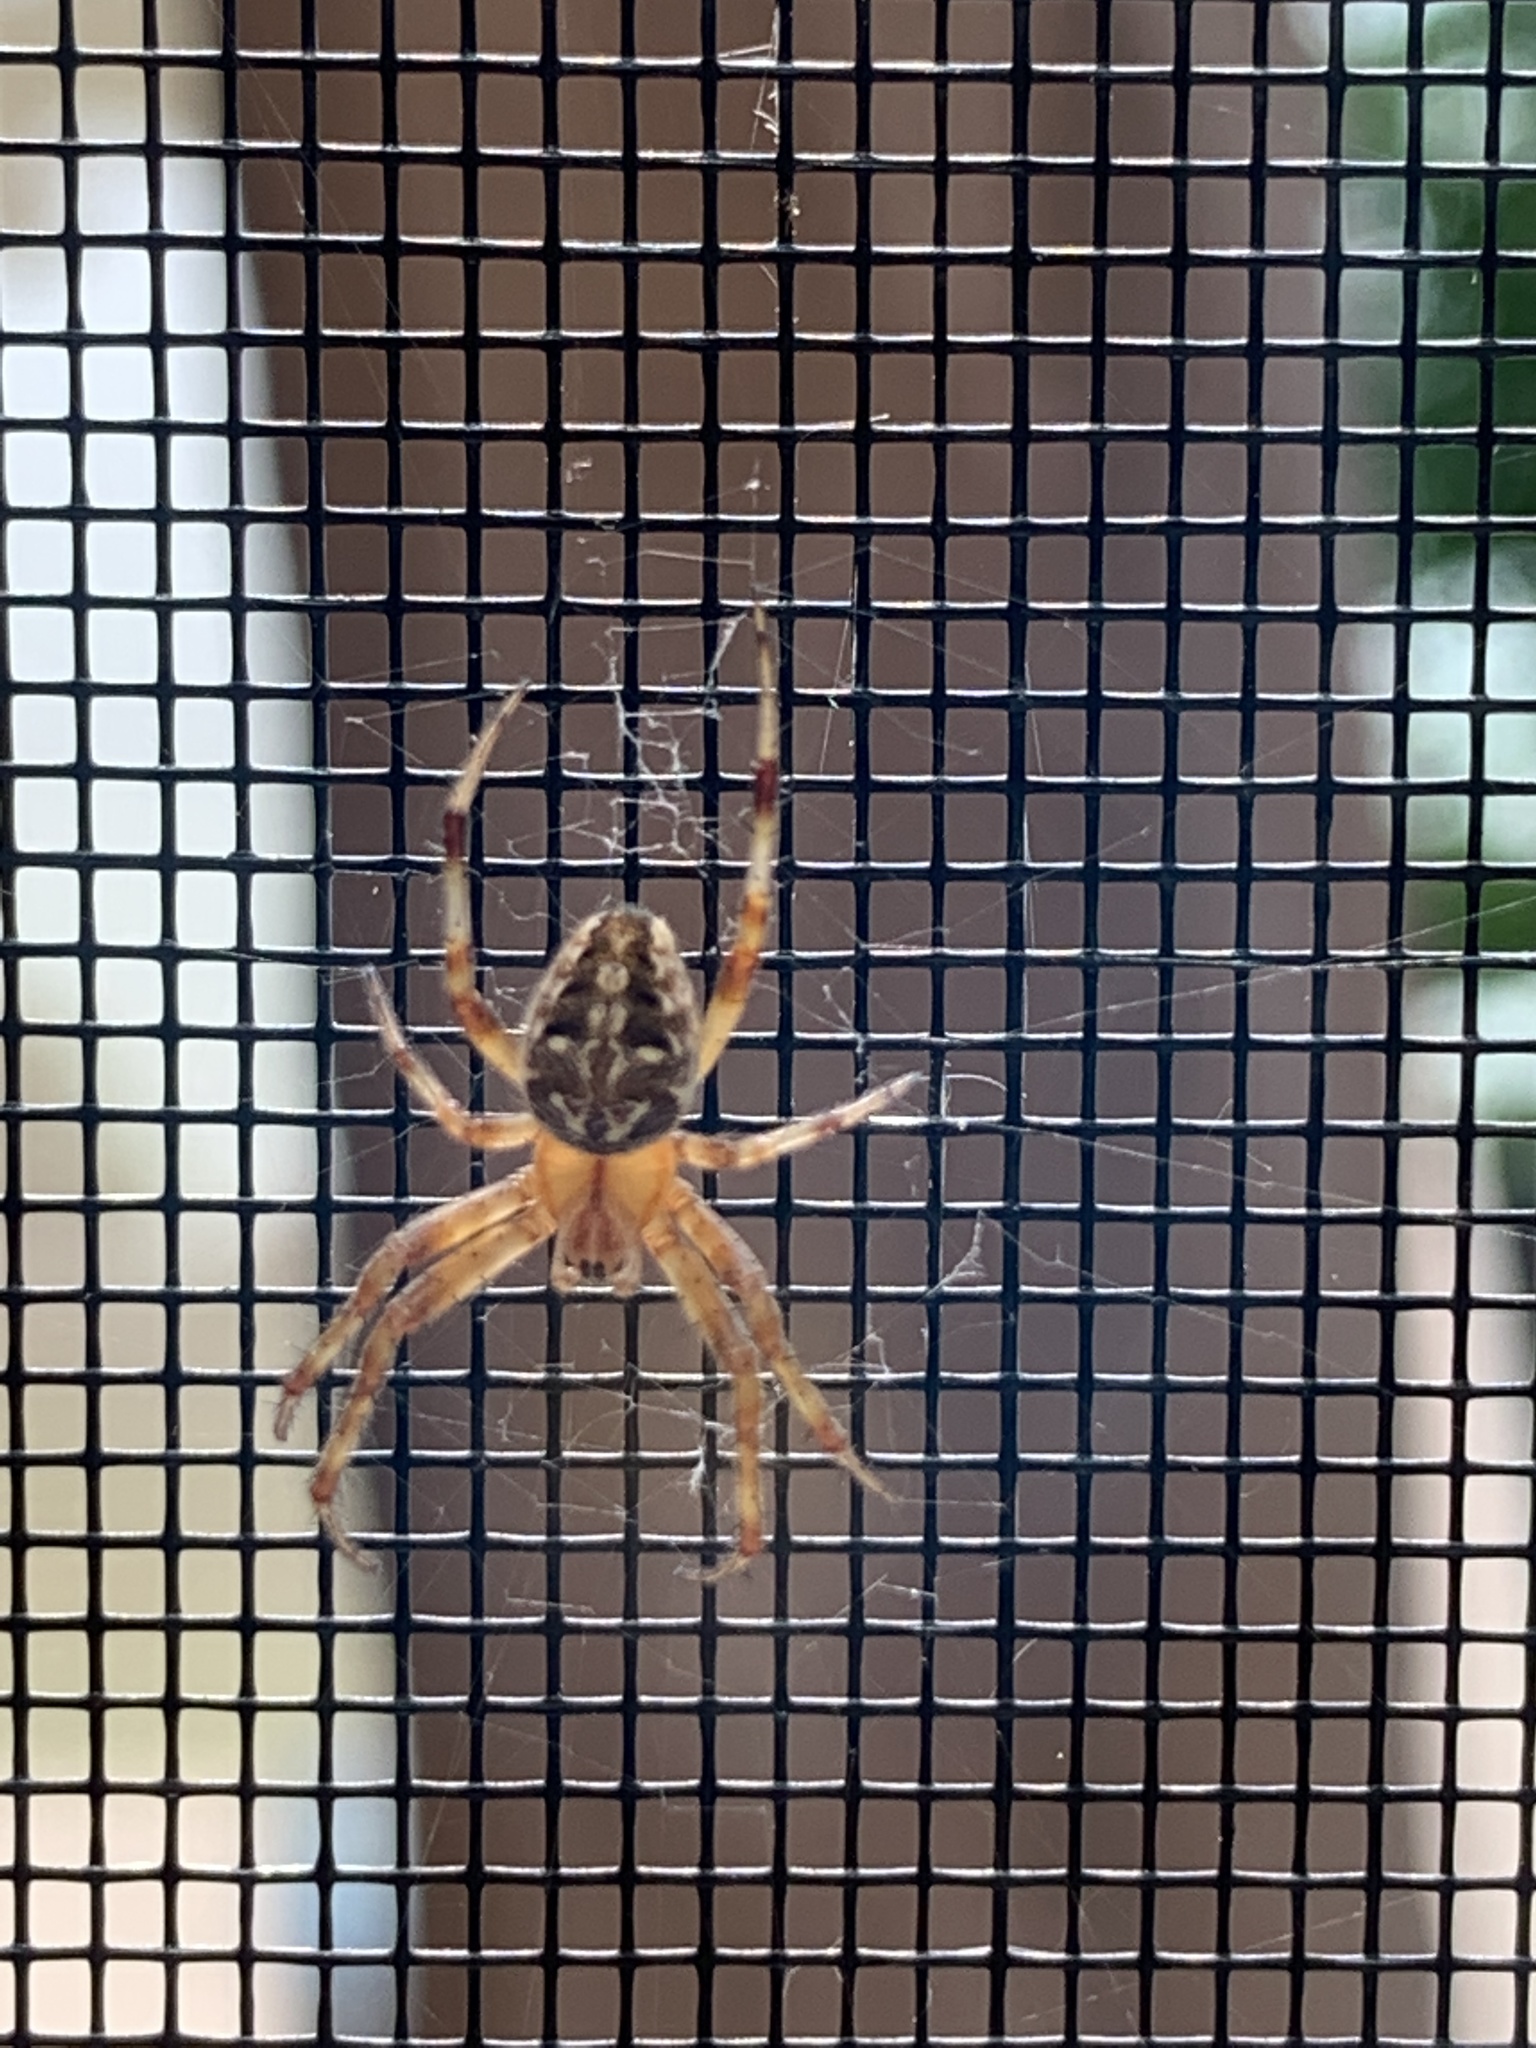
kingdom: Animalia
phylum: Arthropoda
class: Arachnida
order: Araneae
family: Araneidae
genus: Neoscona
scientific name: Neoscona arabesca
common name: Orb weavers
